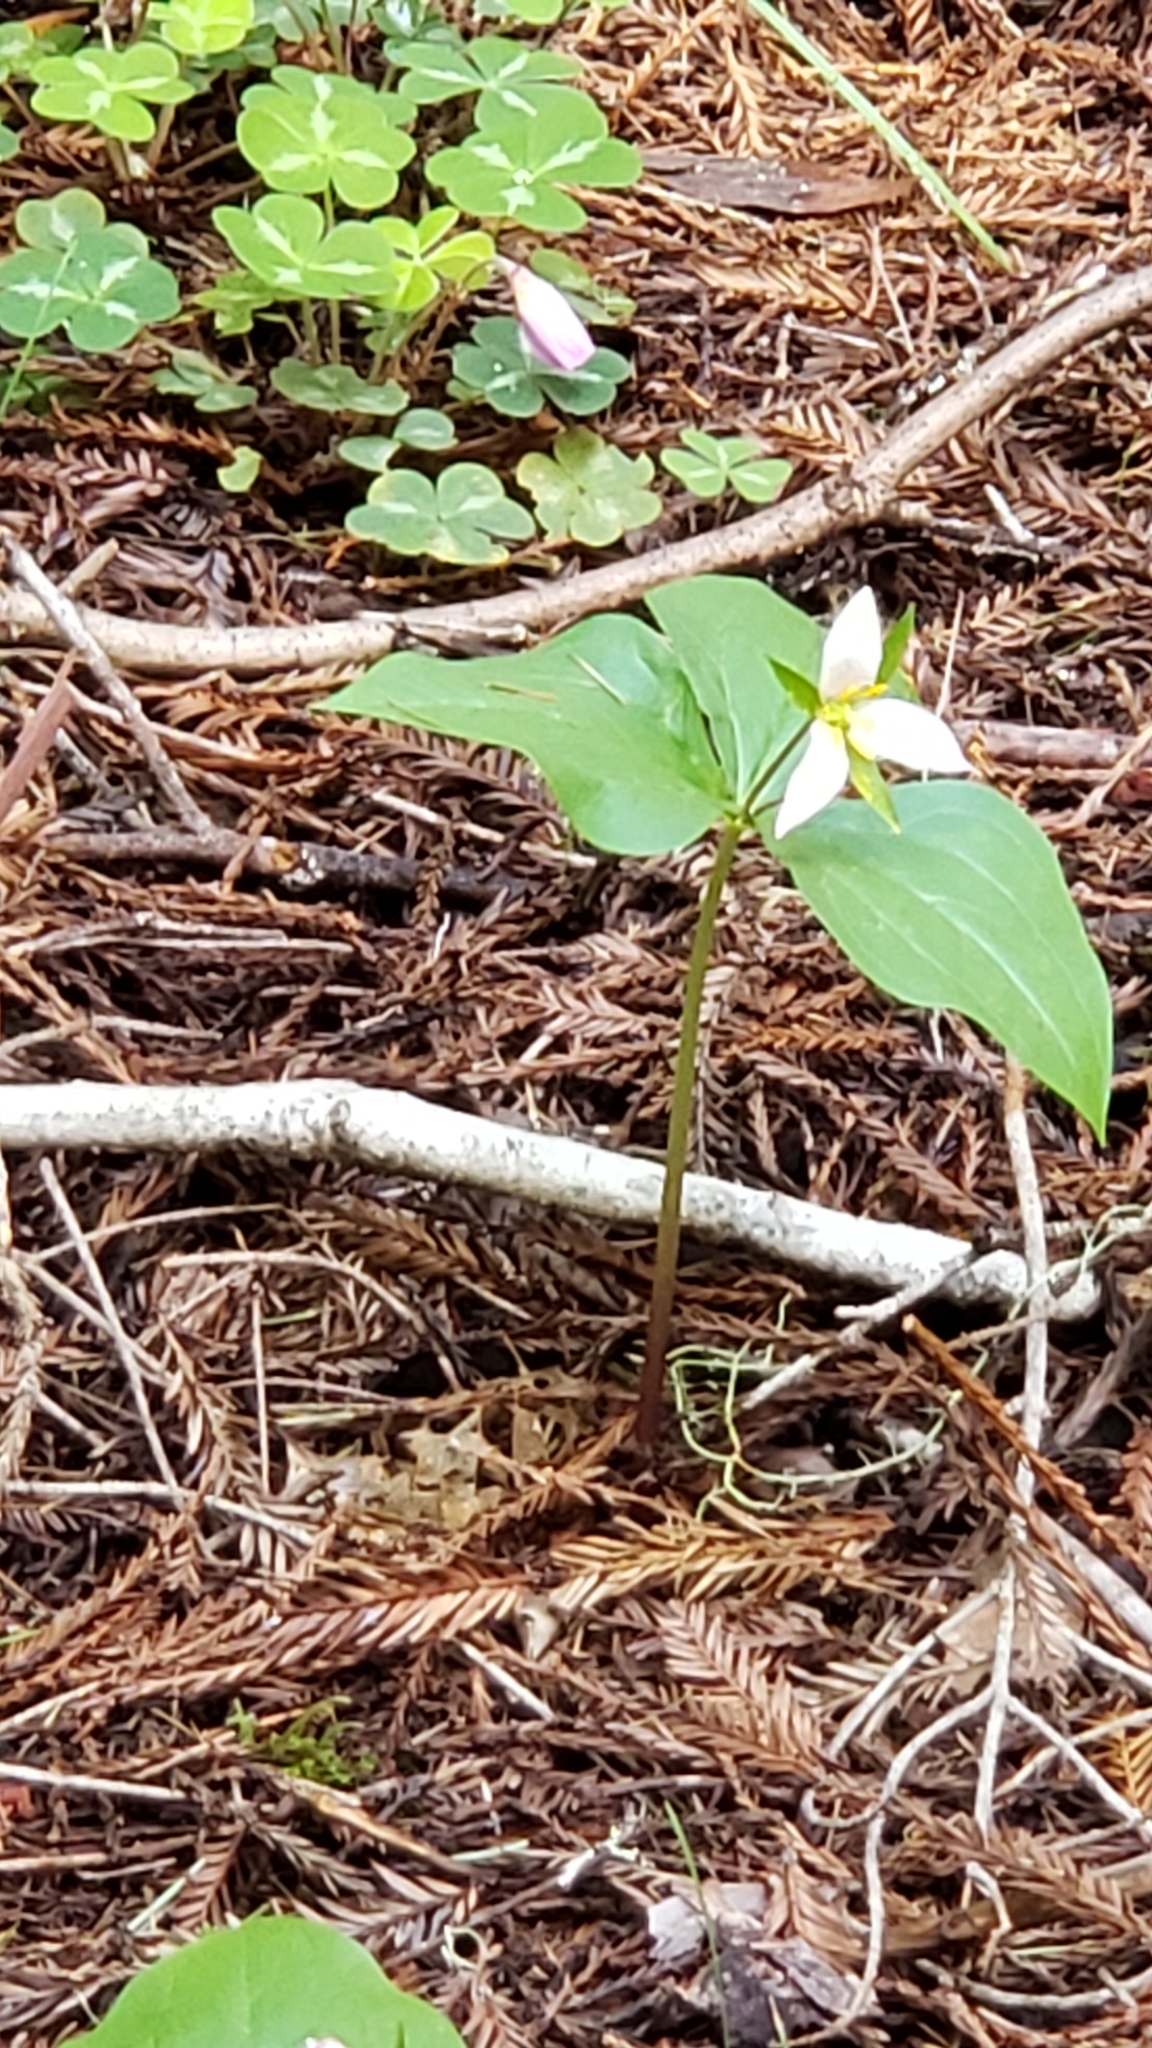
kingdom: Plantae
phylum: Tracheophyta
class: Liliopsida
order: Liliales
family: Melanthiaceae
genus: Trillium
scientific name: Trillium ovatum
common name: Pacific trillium
